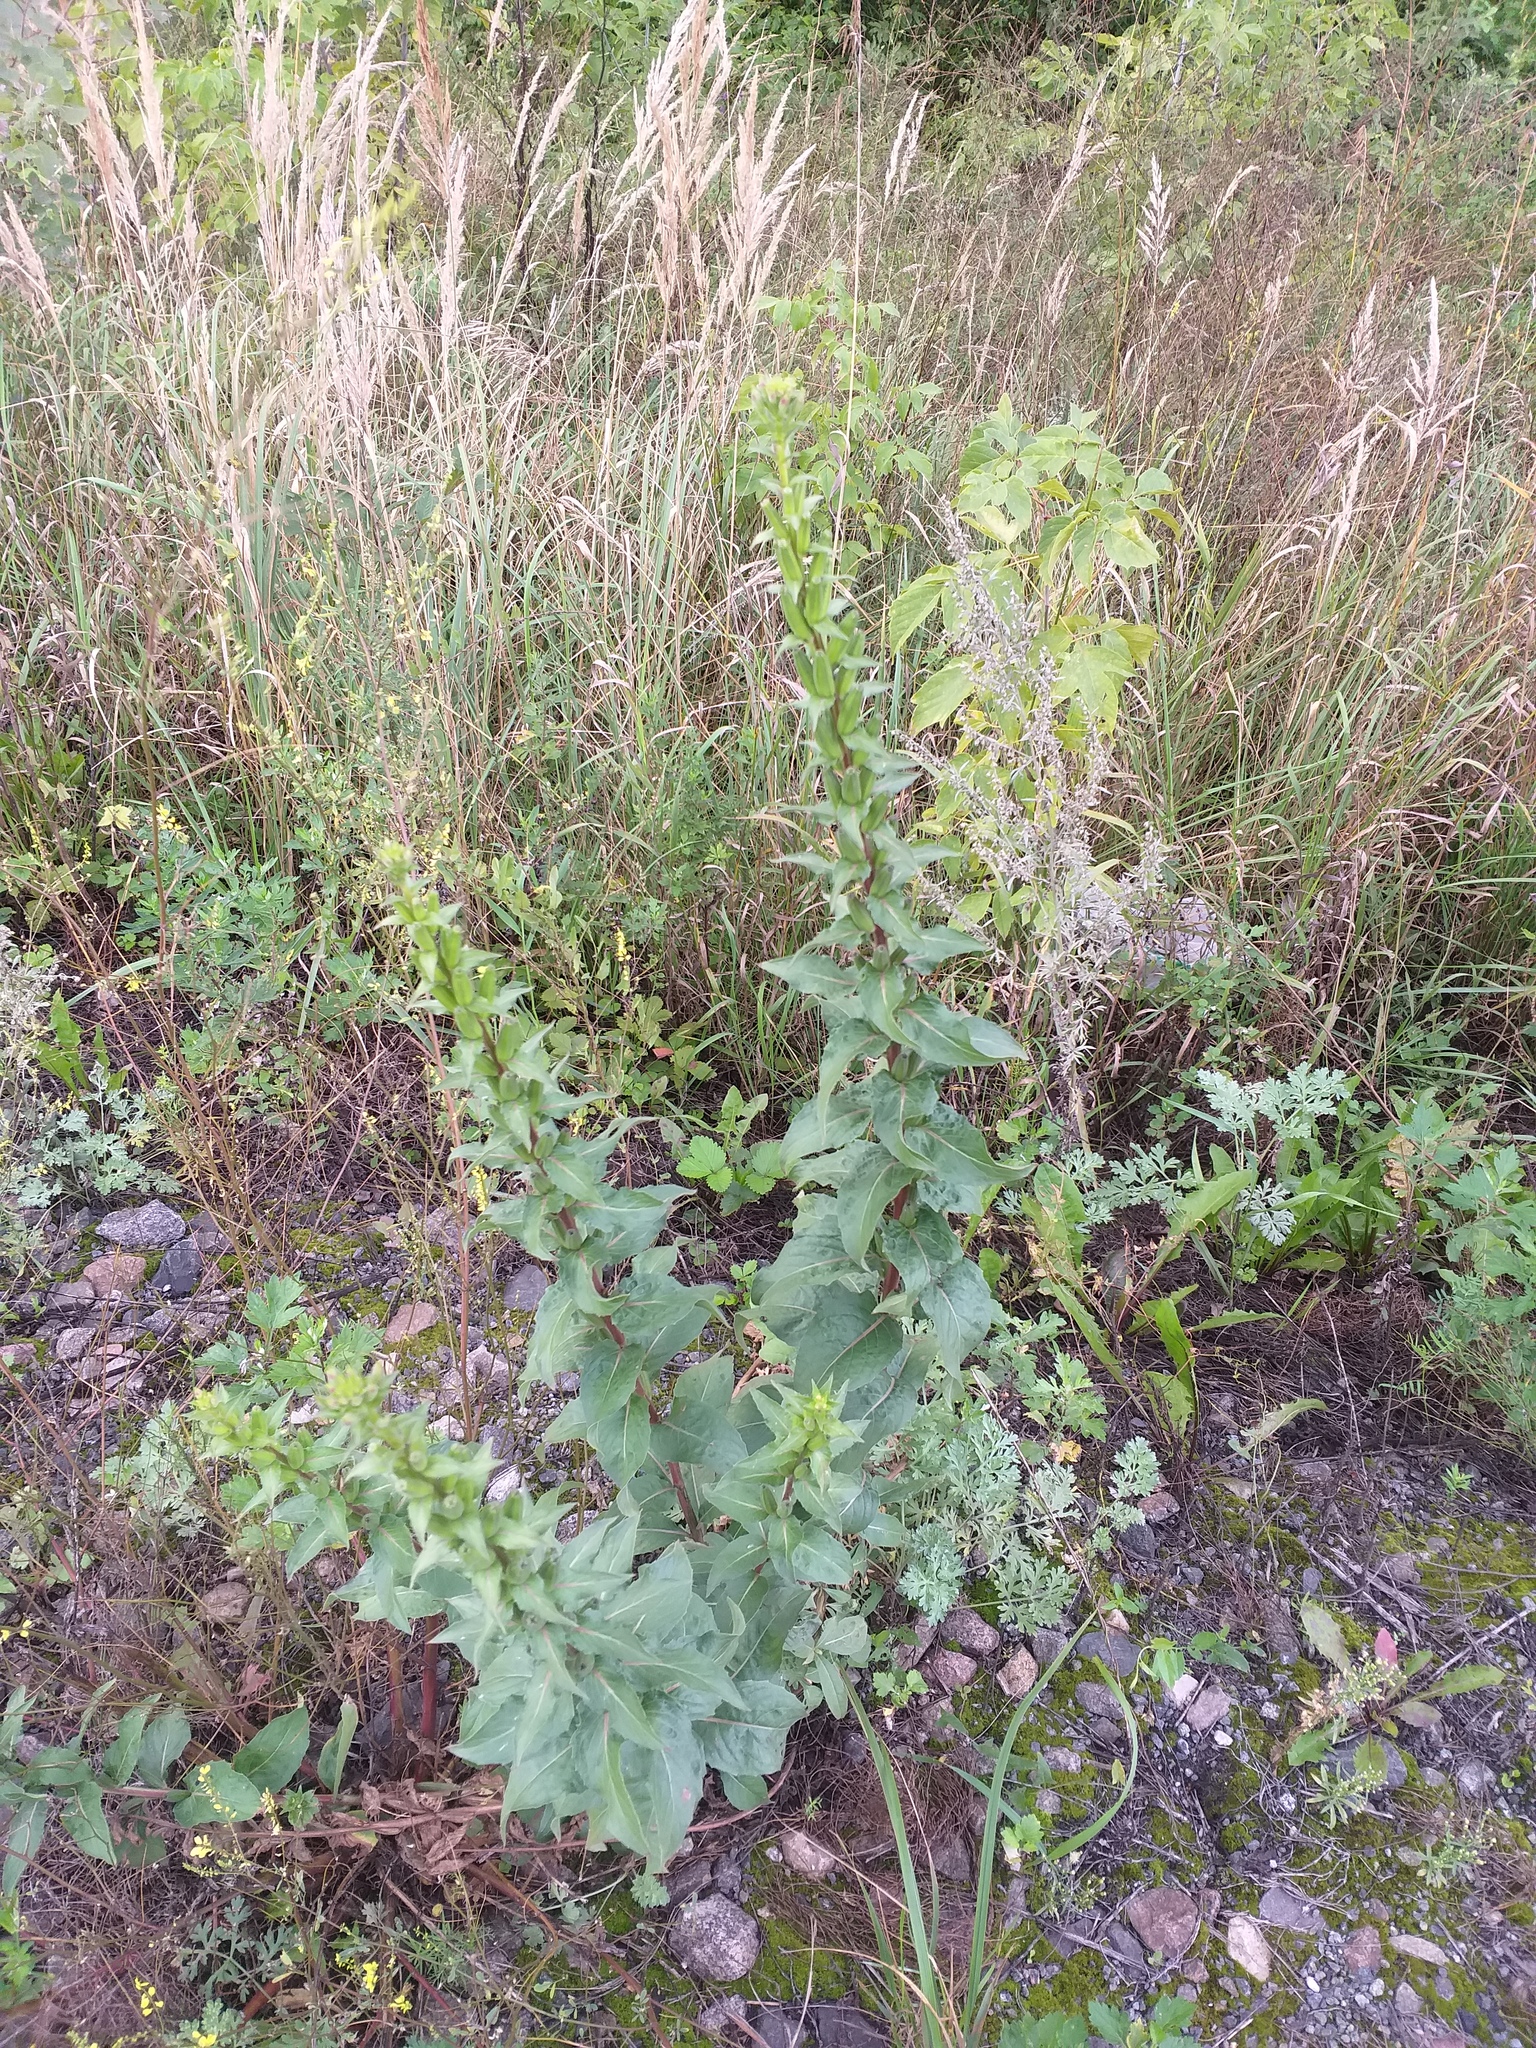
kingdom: Plantae
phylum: Tracheophyta
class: Magnoliopsida
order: Myrtales
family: Onagraceae
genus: Oenothera
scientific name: Oenothera paradoxa
